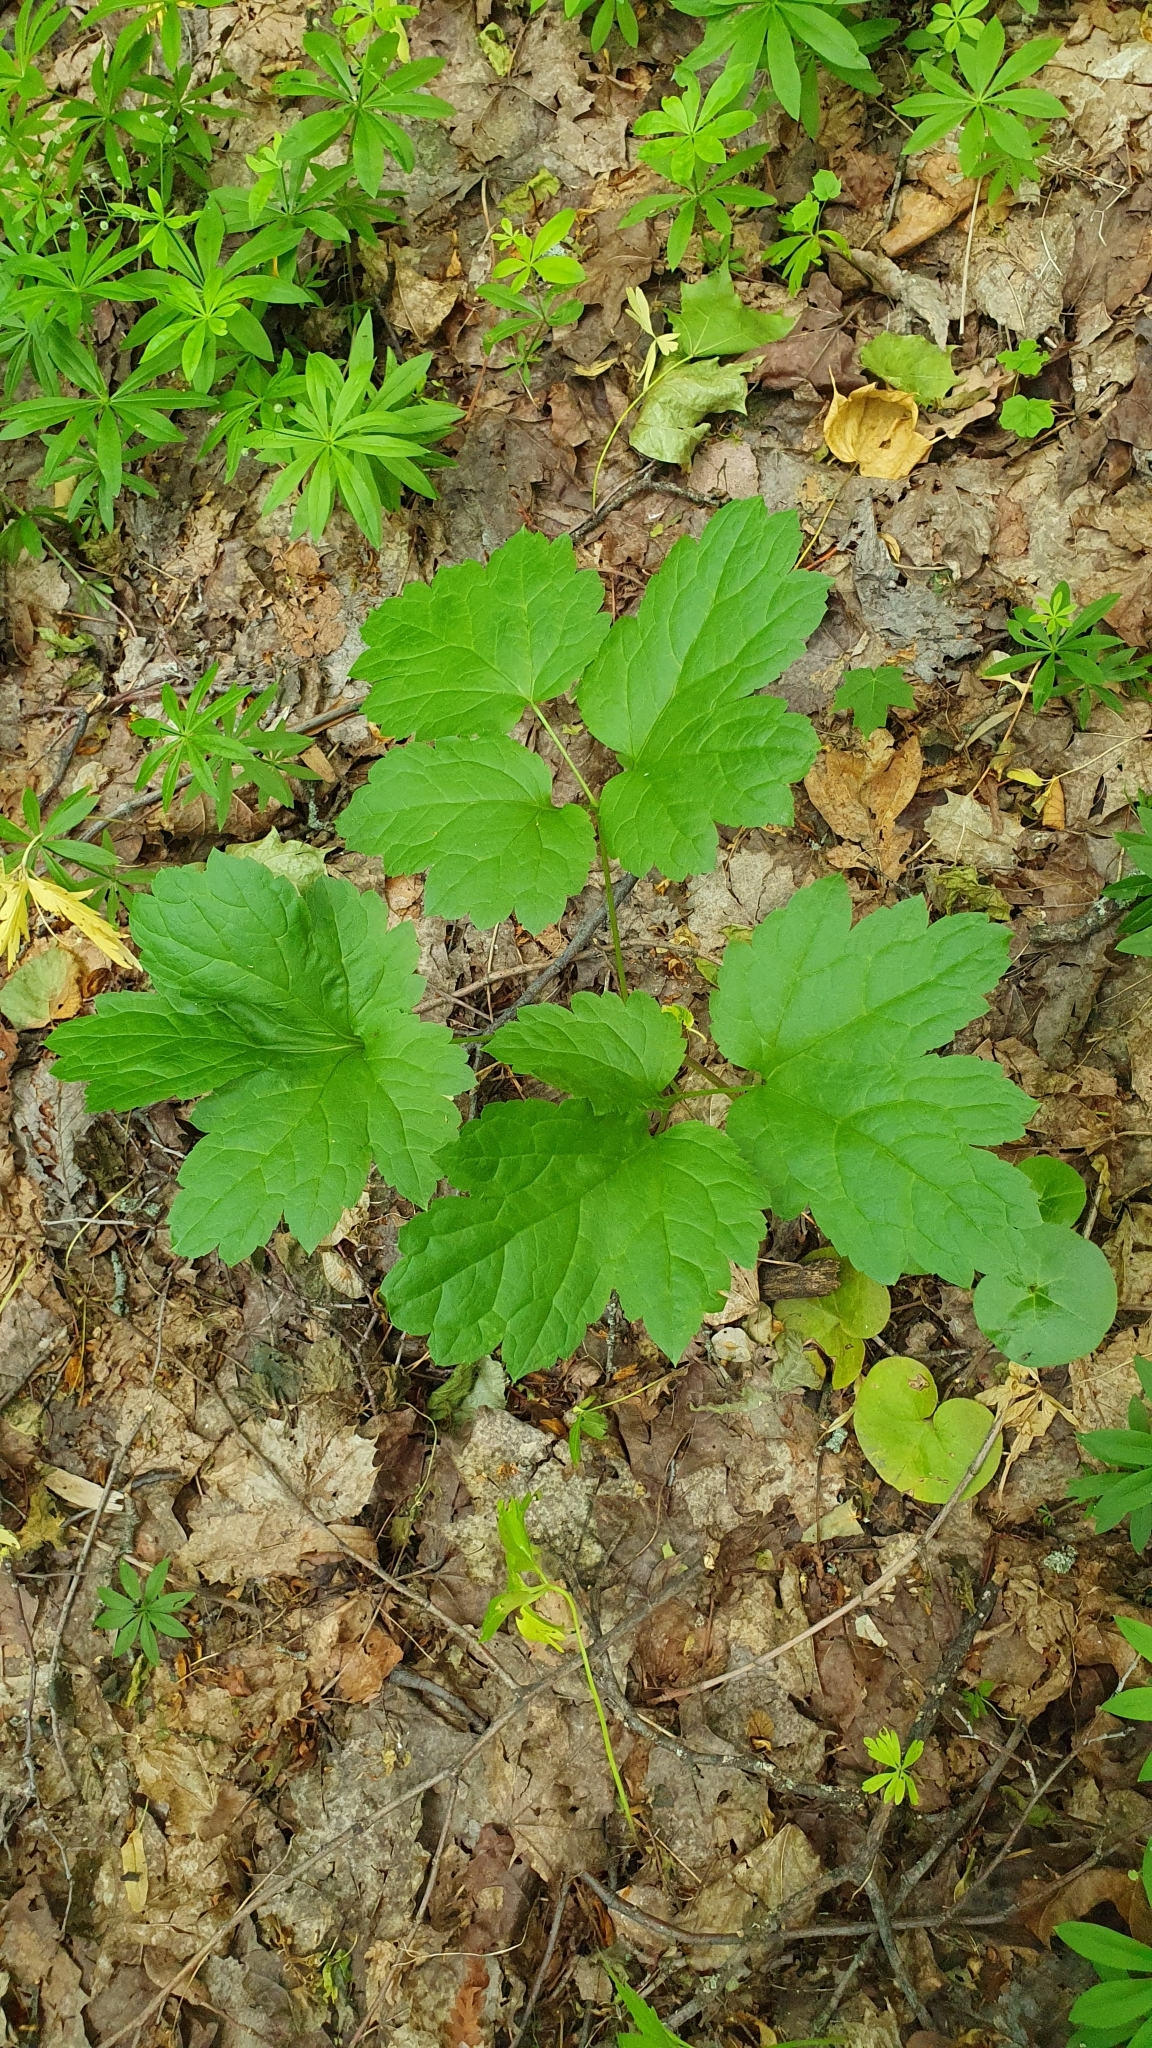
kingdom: Plantae
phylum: Tracheophyta
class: Magnoliopsida
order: Ranunculales
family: Ranunculaceae
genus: Actaea
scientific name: Actaea spicata
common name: Baneberry
